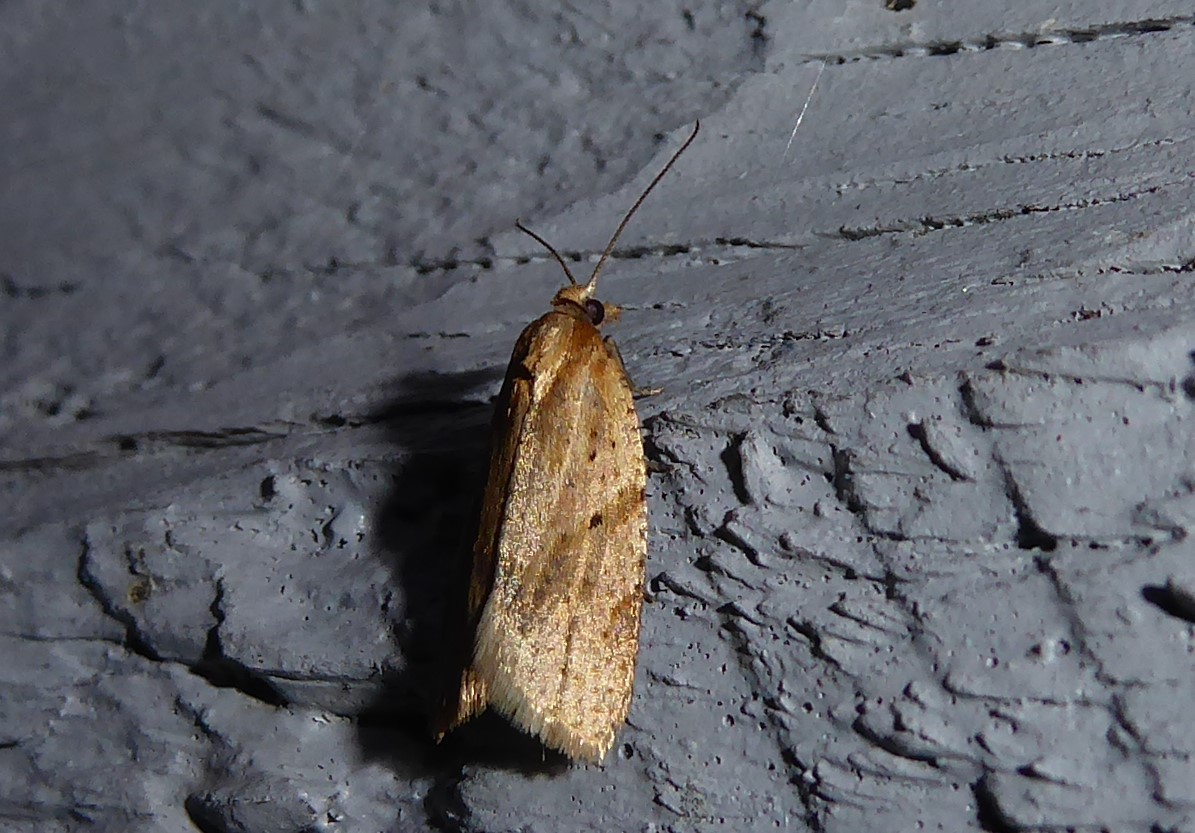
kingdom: Animalia
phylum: Arthropoda
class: Insecta
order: Lepidoptera
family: Tortricidae
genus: Clepsis
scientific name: Clepsis
